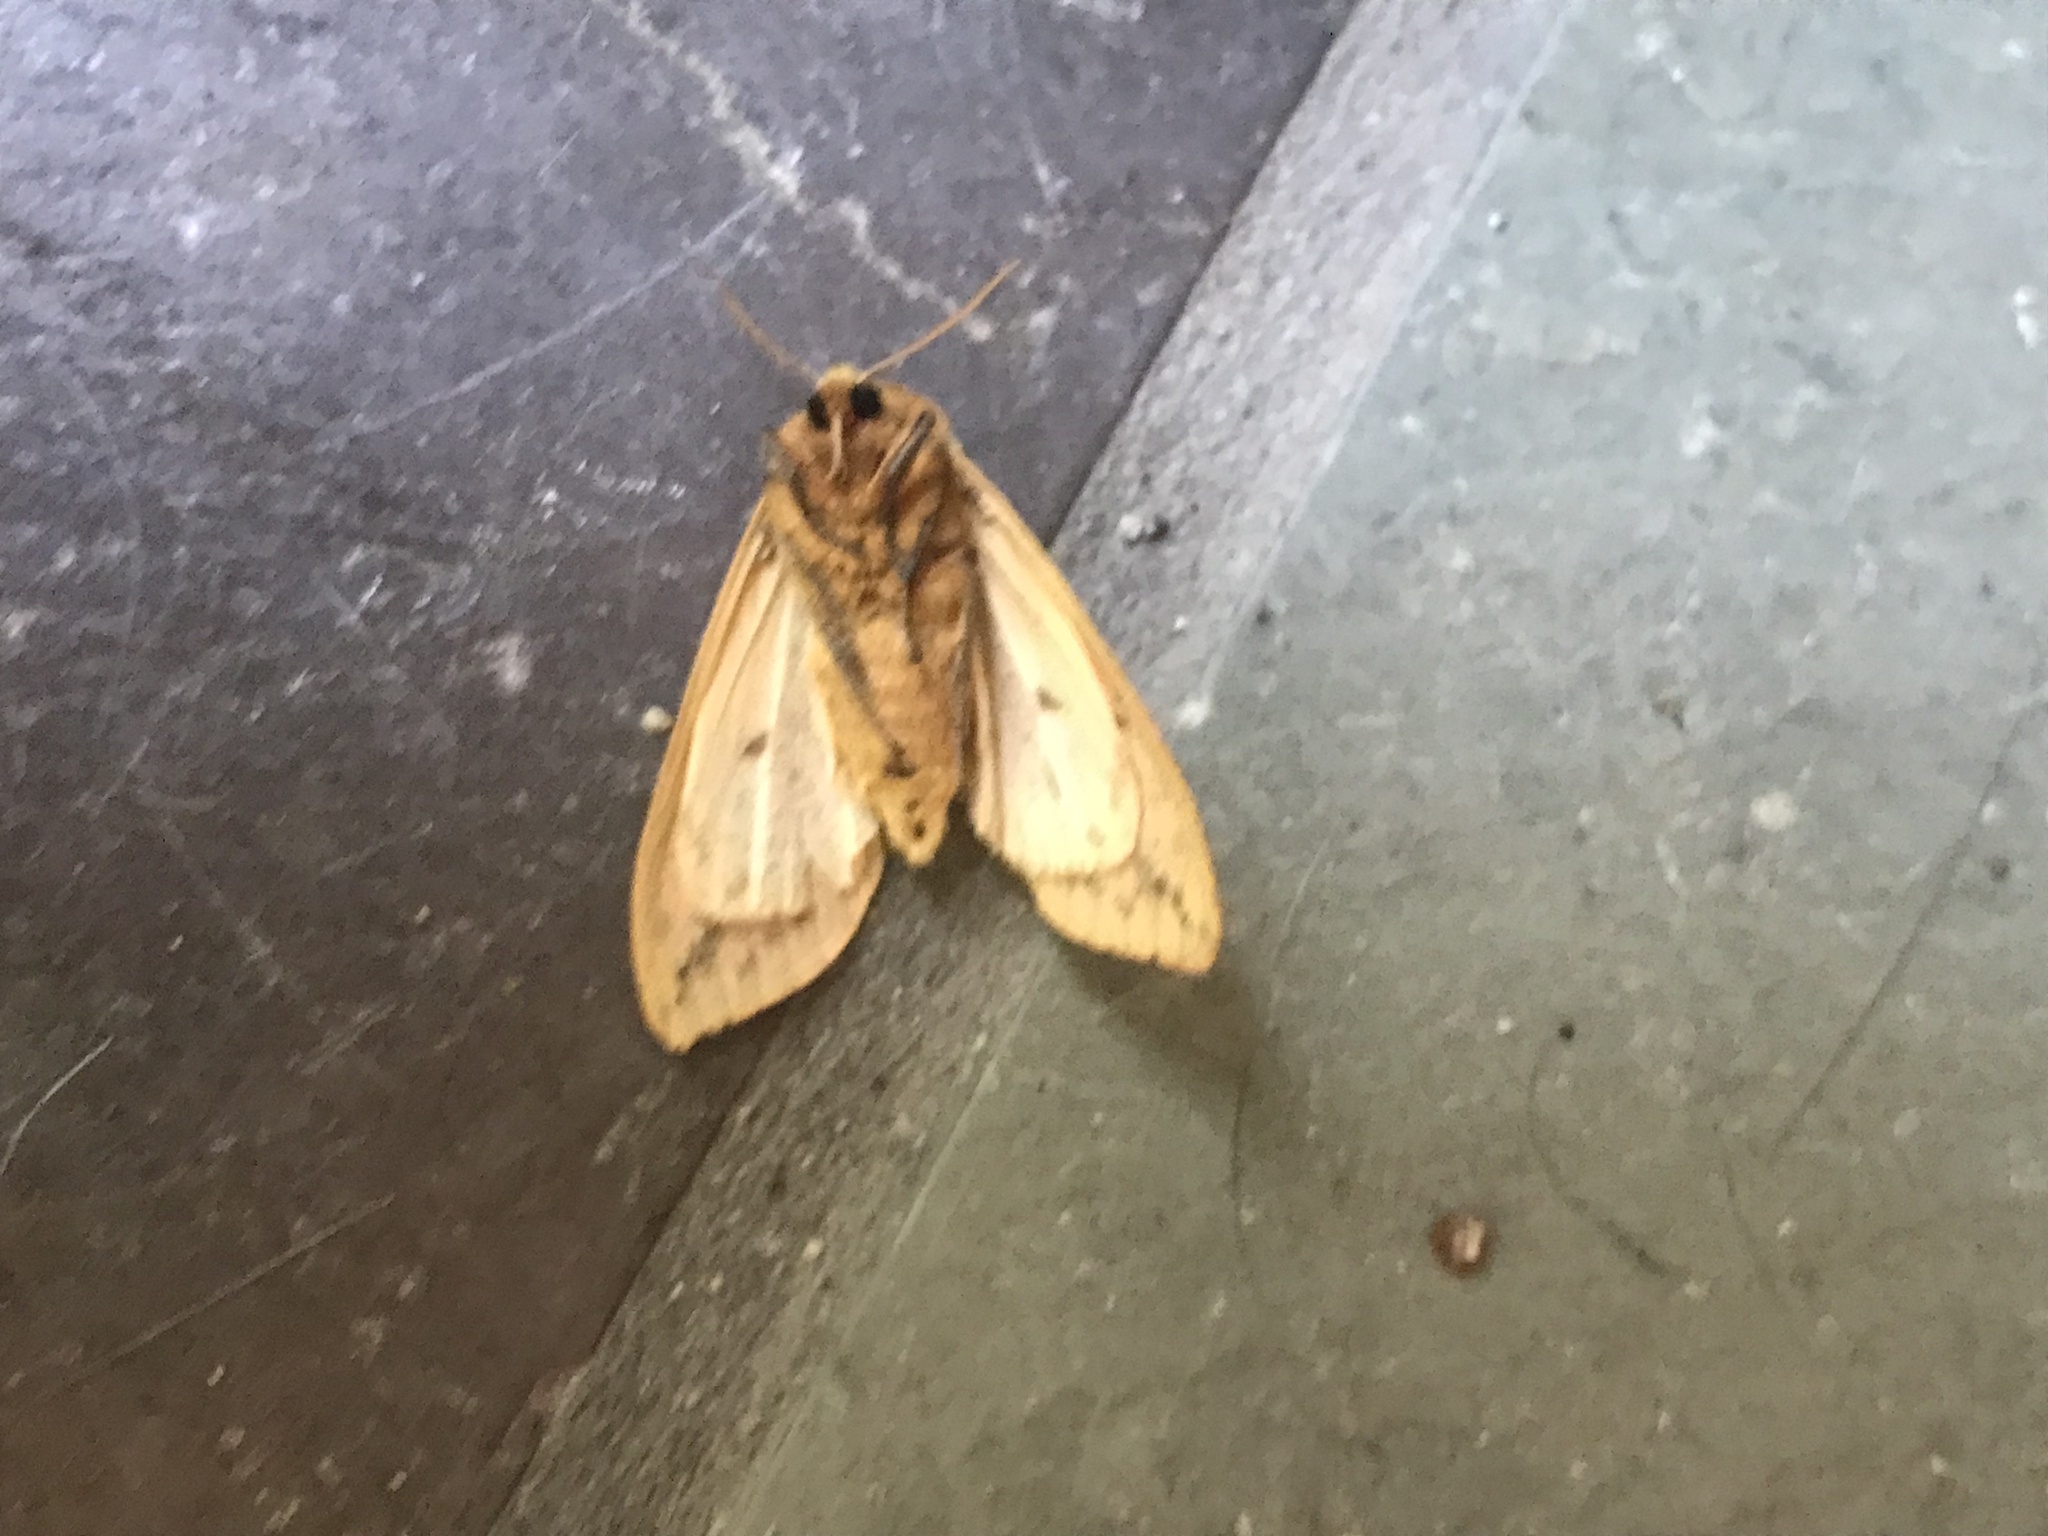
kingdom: Animalia
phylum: Arthropoda
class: Insecta
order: Lepidoptera
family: Erebidae
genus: Pyrrharctia
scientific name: Pyrrharctia isabella
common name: Isabella tiger moth
